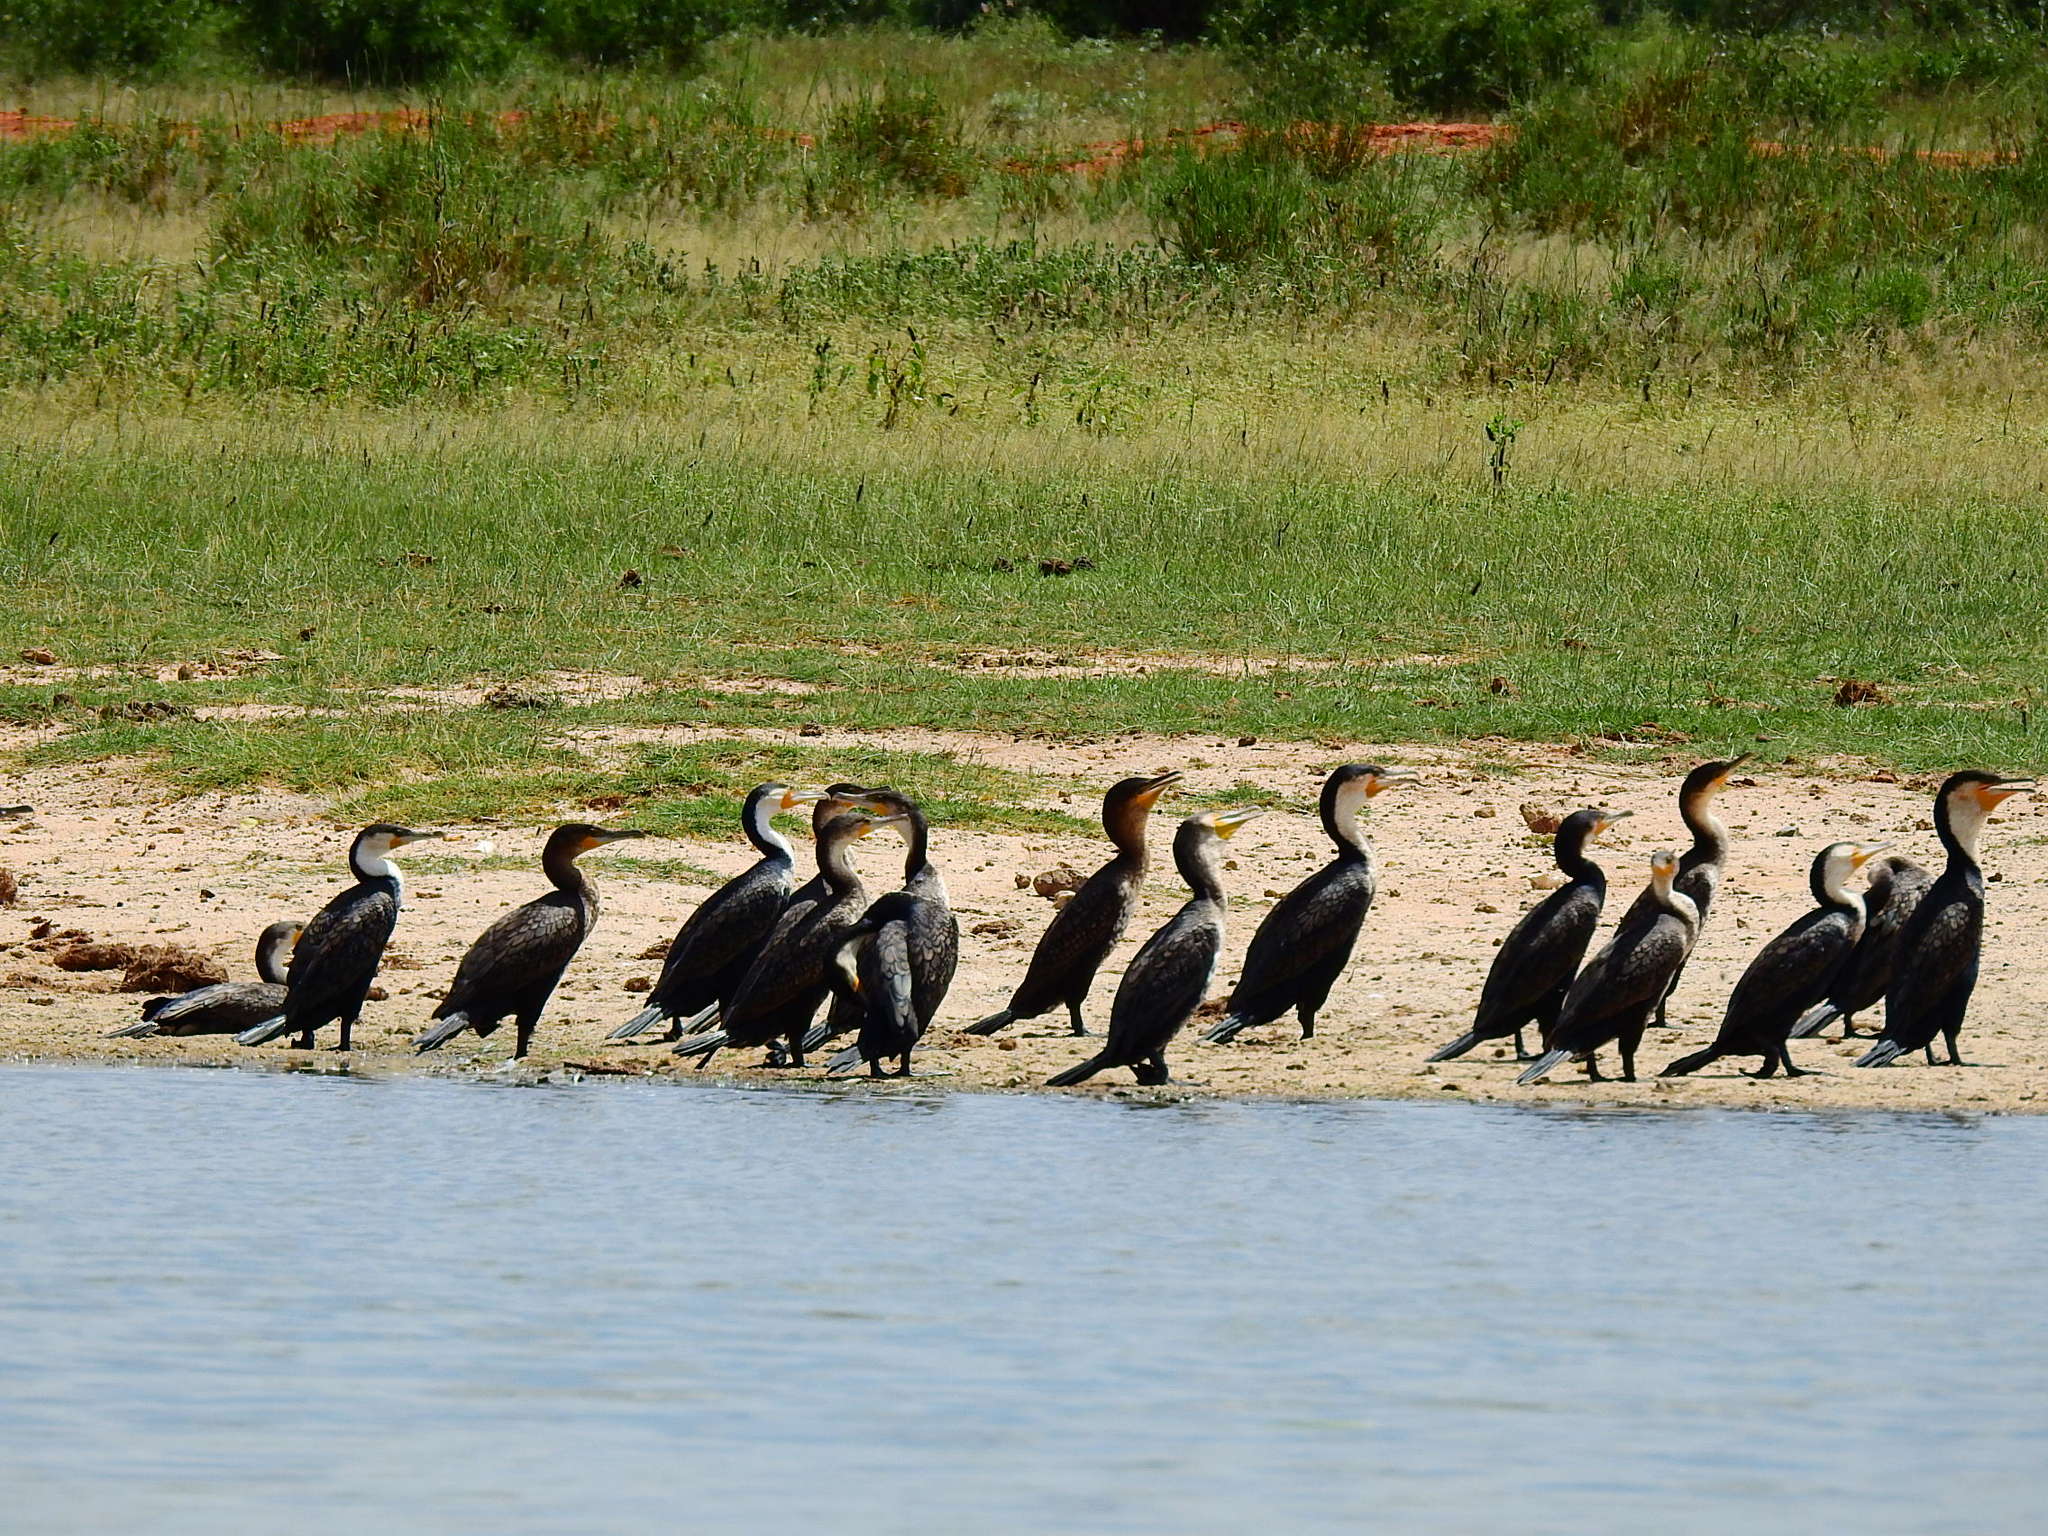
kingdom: Animalia
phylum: Chordata
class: Aves
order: Suliformes
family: Phalacrocoracidae
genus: Phalacrocorax
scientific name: Phalacrocorax carbo
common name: Great cormorant
